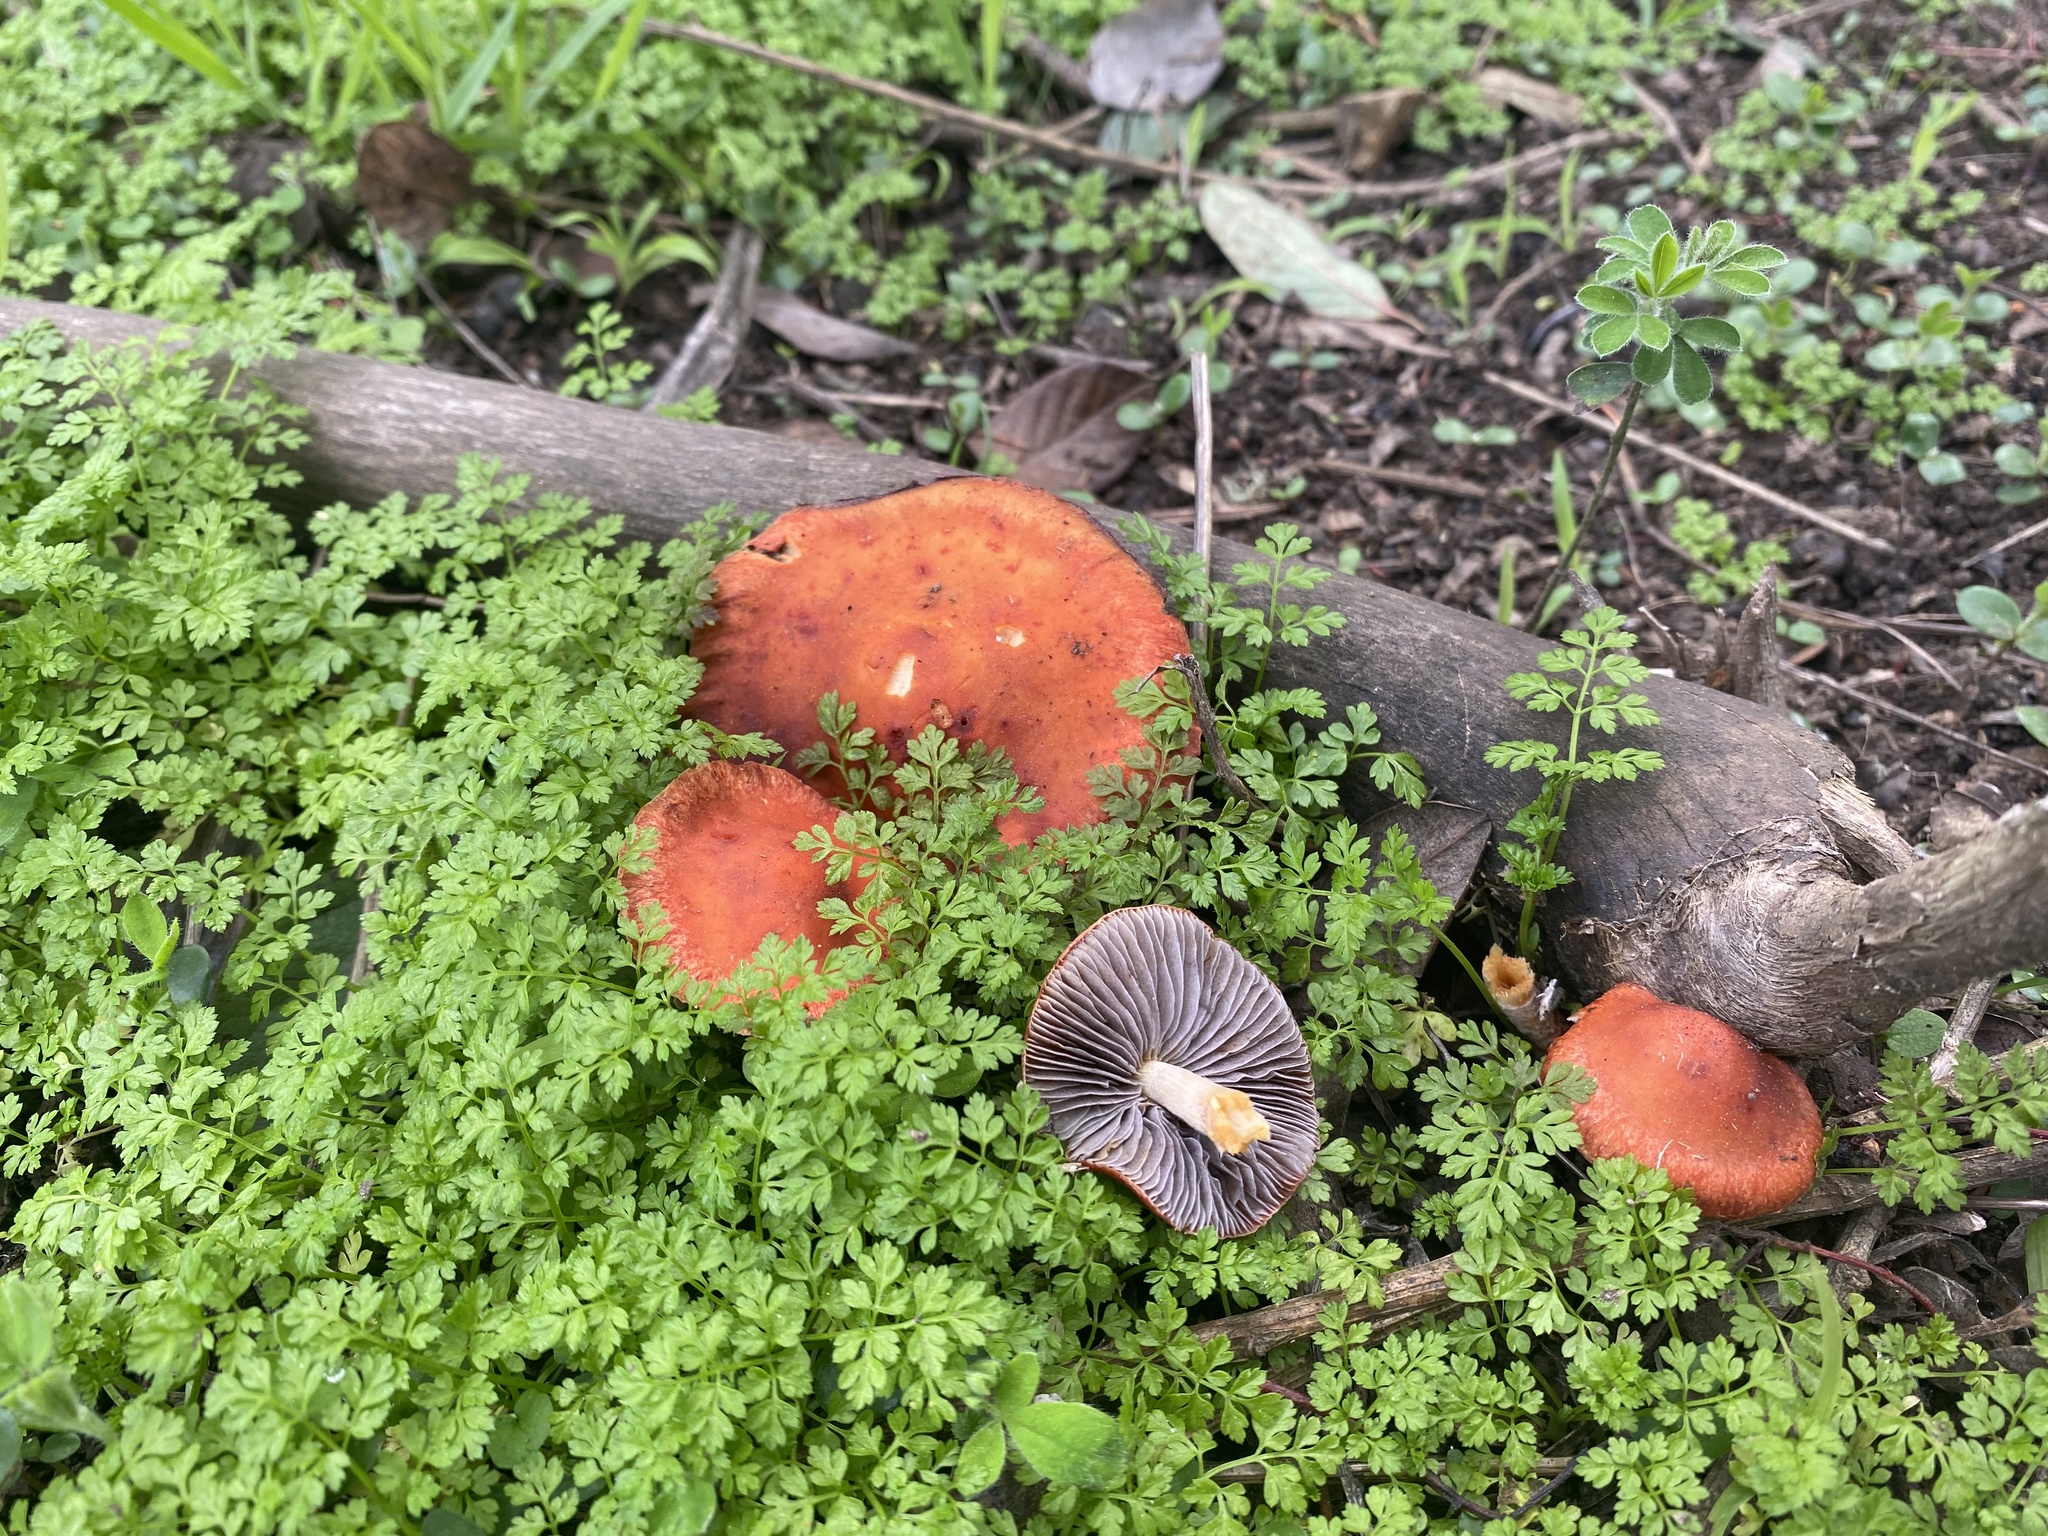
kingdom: Fungi
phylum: Basidiomycota
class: Agaricomycetes
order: Agaricales
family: Strophariaceae
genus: Leratiomyces
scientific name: Leratiomyces ceres
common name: Redlead roundhead
